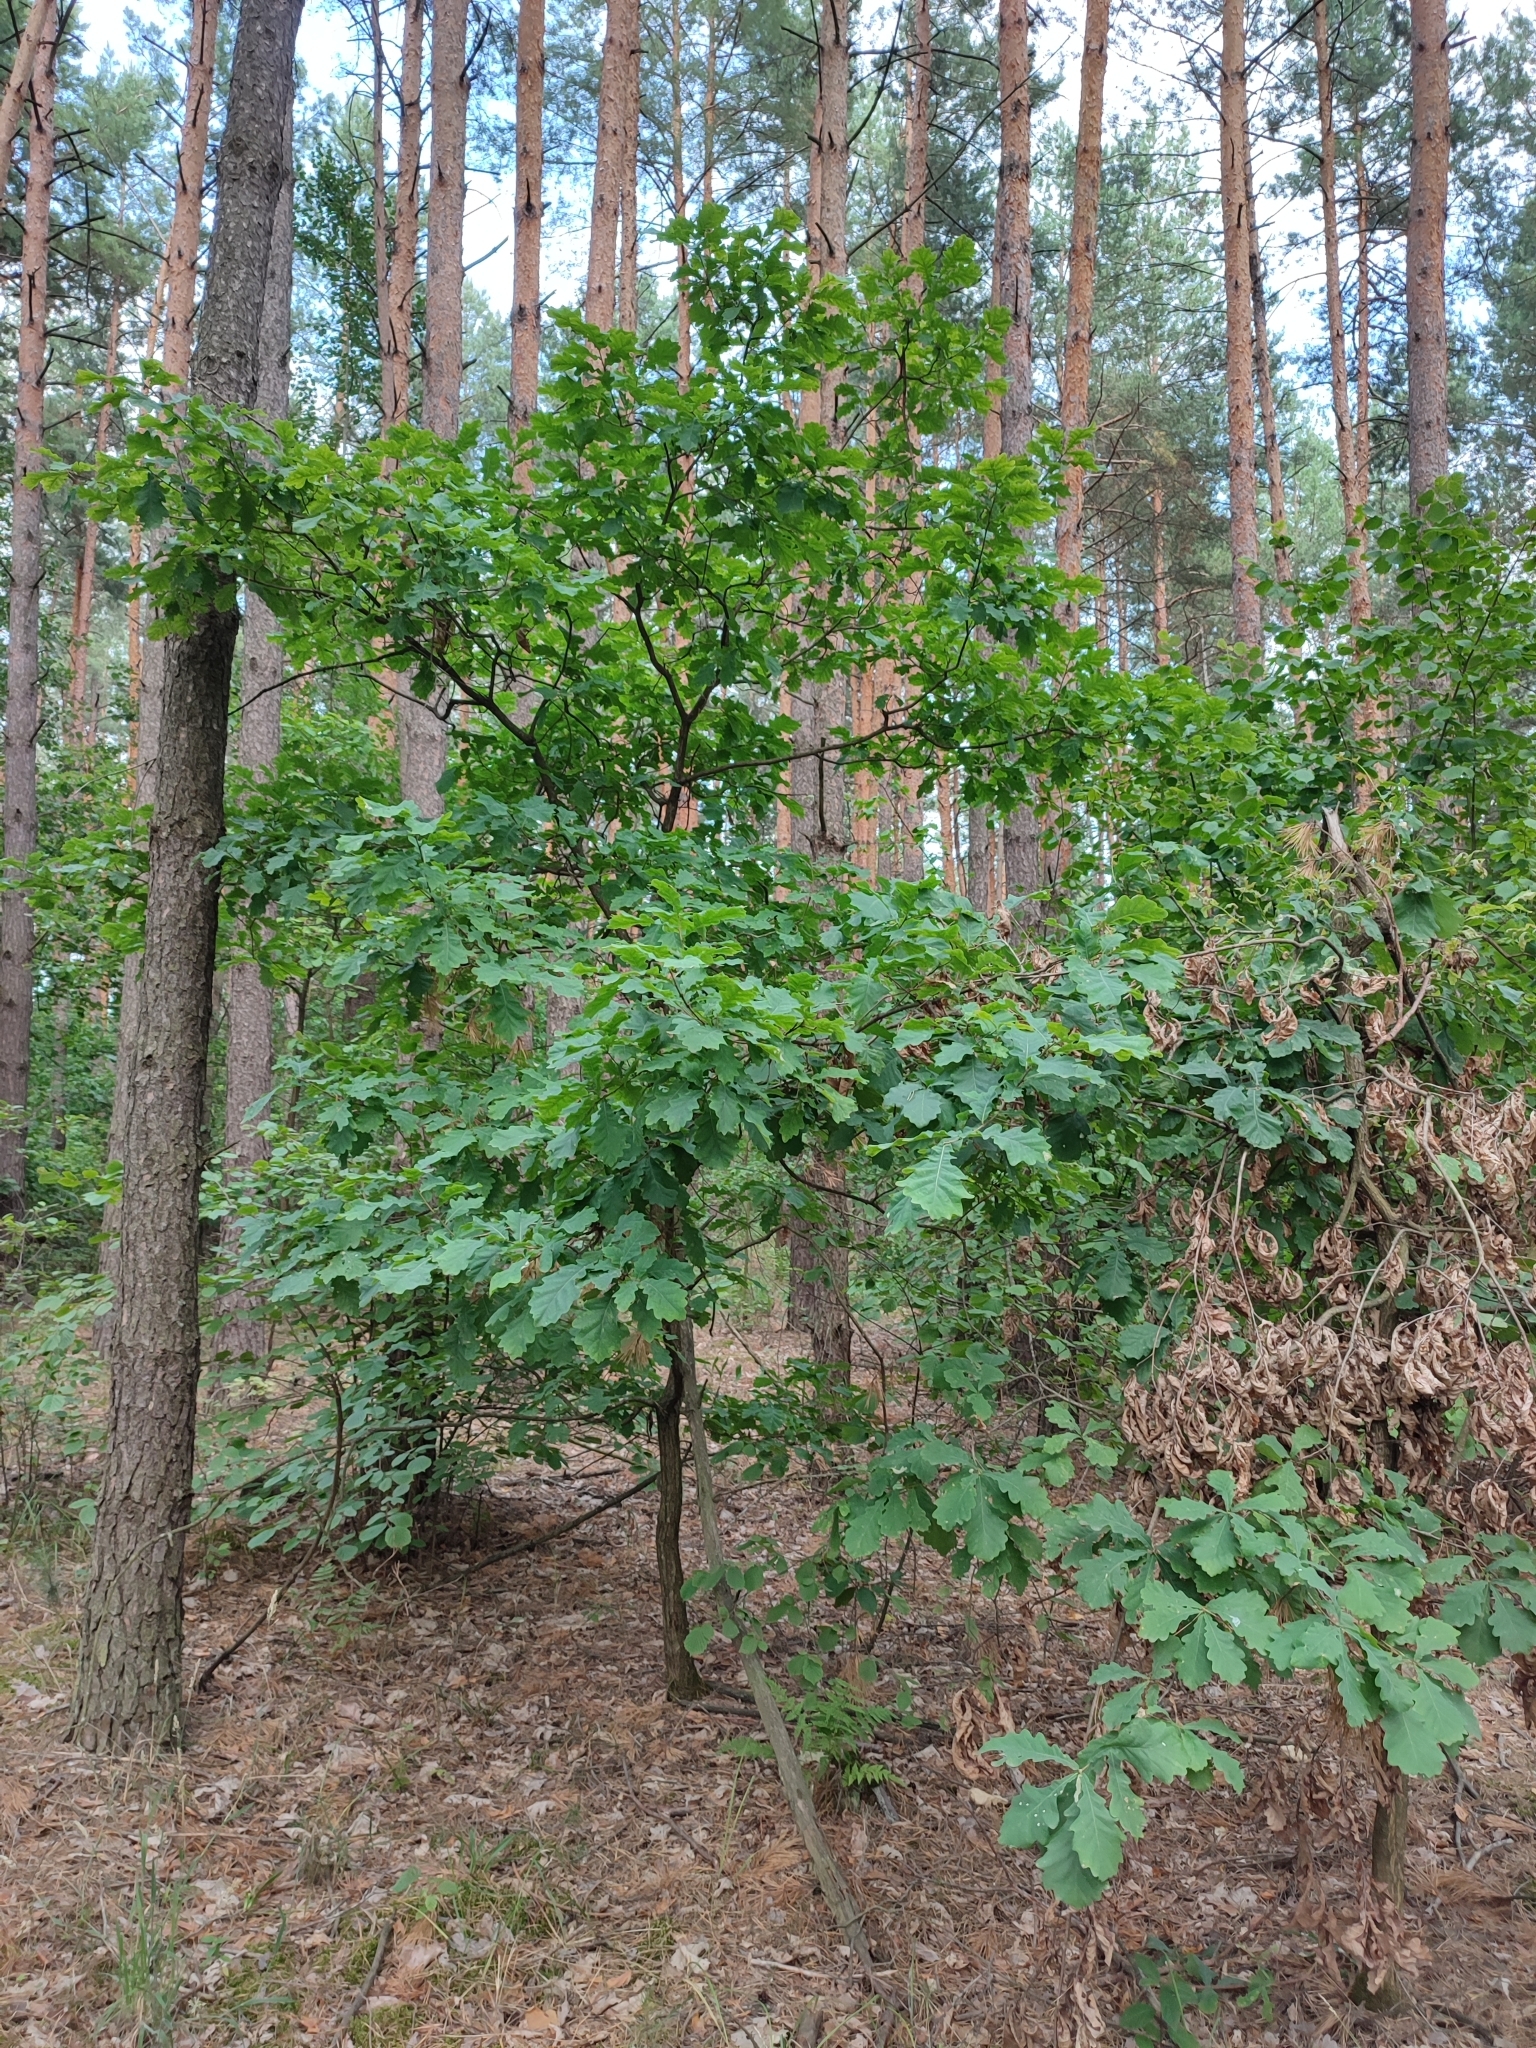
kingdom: Plantae
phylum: Tracheophyta
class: Magnoliopsida
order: Fagales
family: Fagaceae
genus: Quercus
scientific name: Quercus robur
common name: Pedunculate oak
